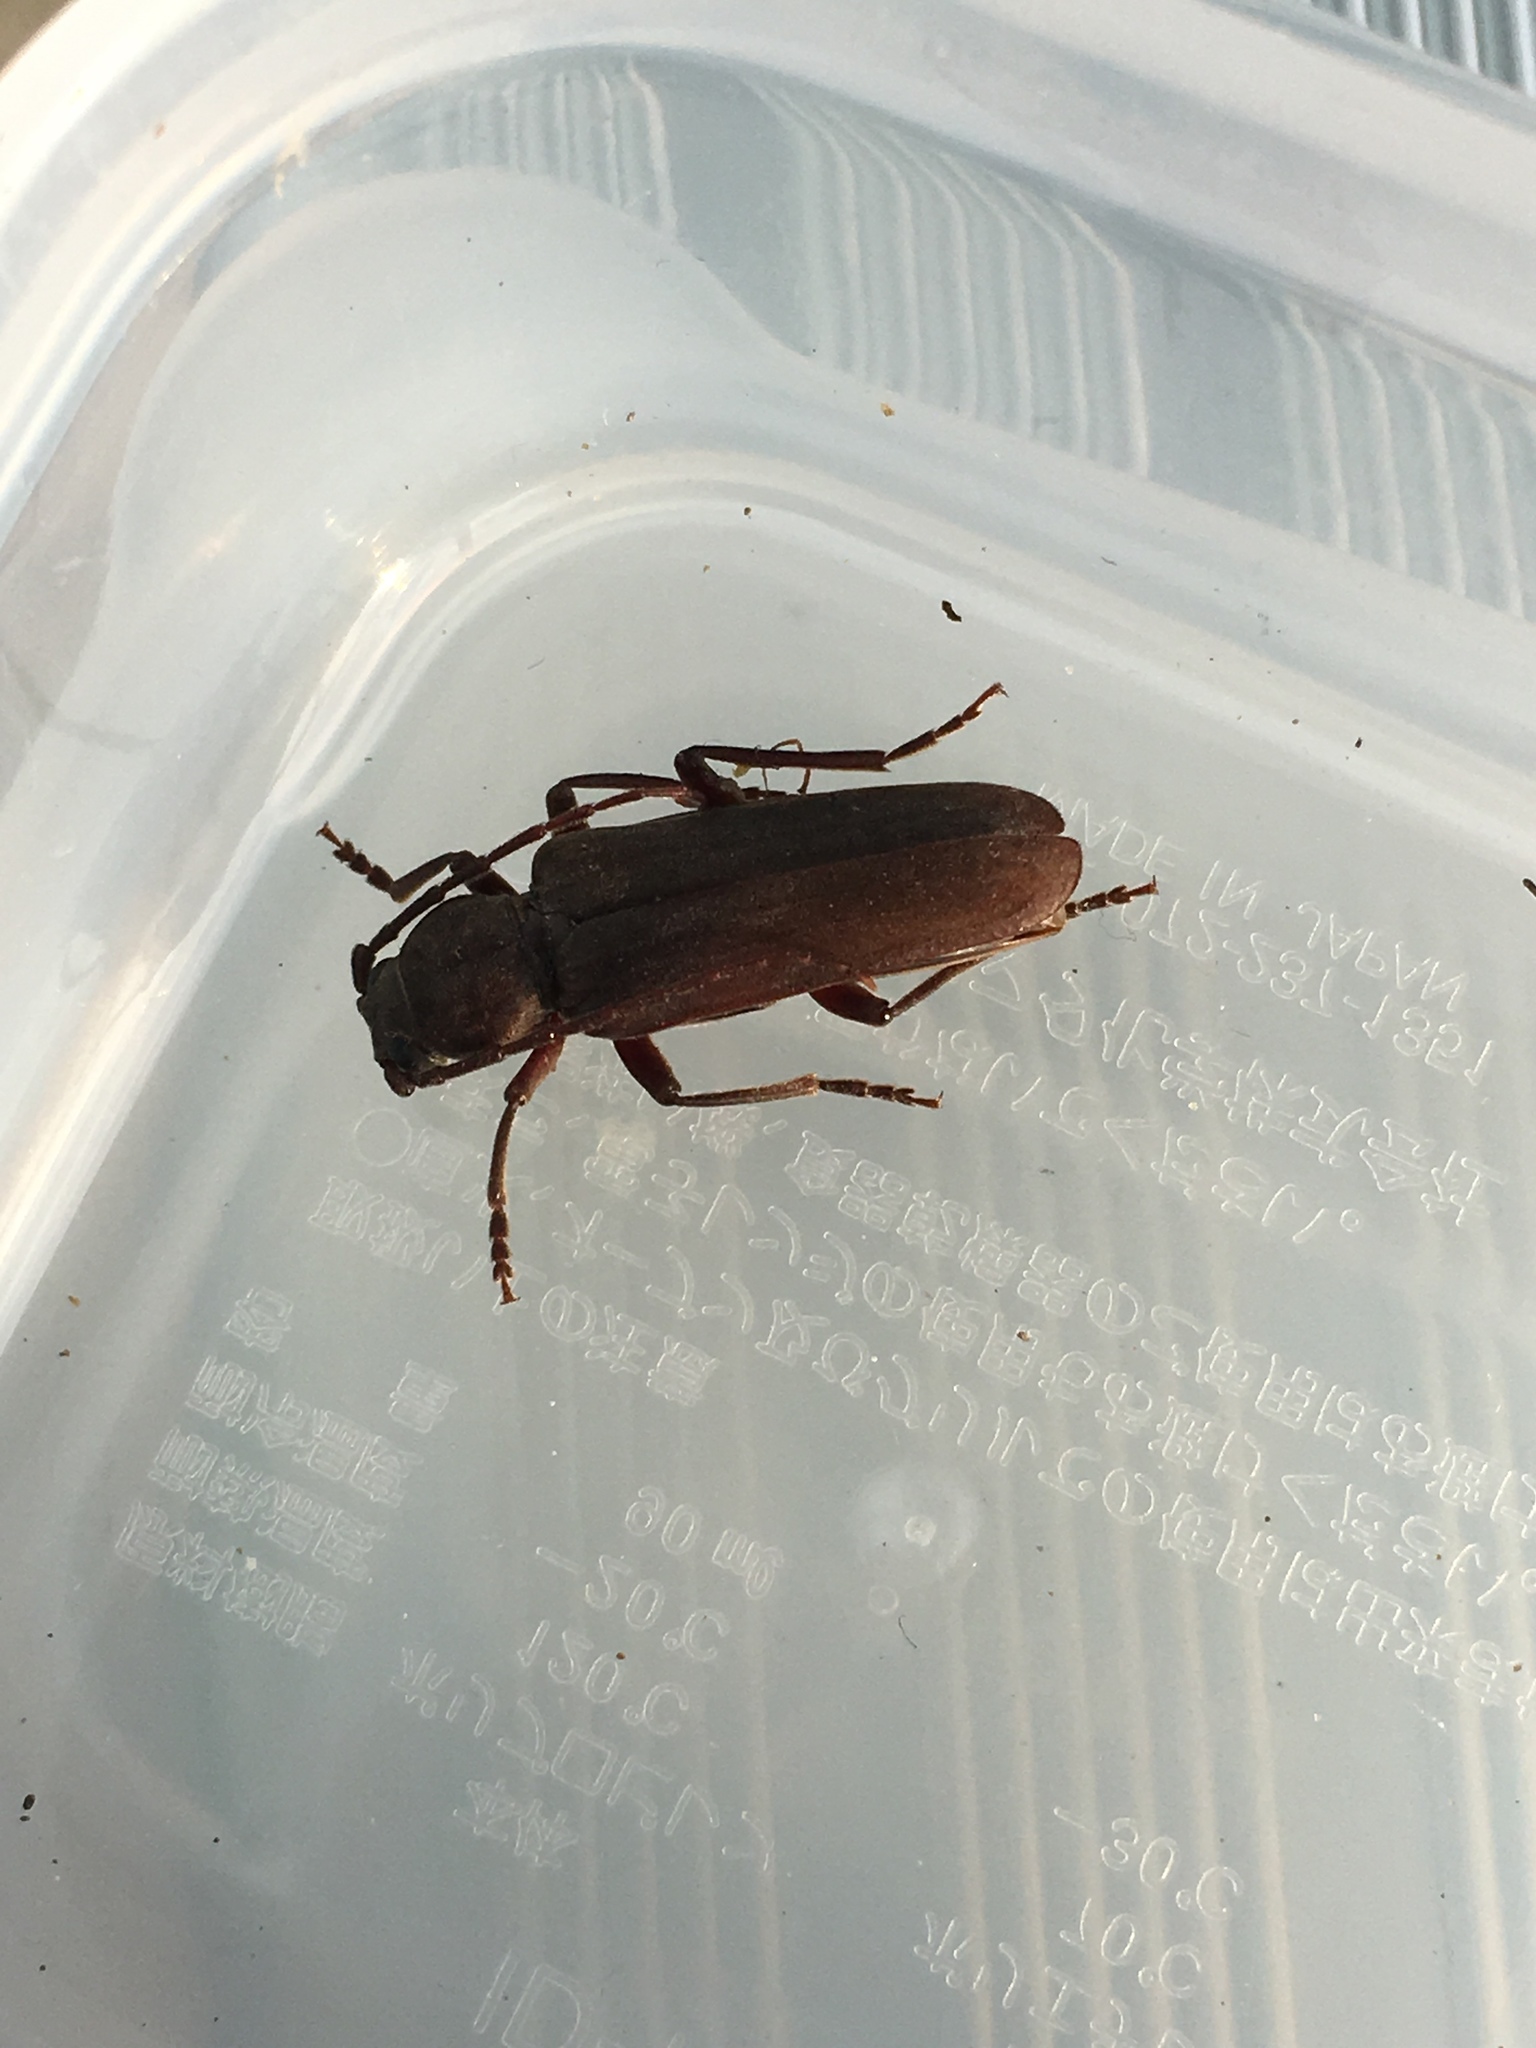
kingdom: Animalia
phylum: Arthropoda
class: Insecta
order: Coleoptera
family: Cerambycidae
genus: Arhopalus
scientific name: Arhopalus ferus
